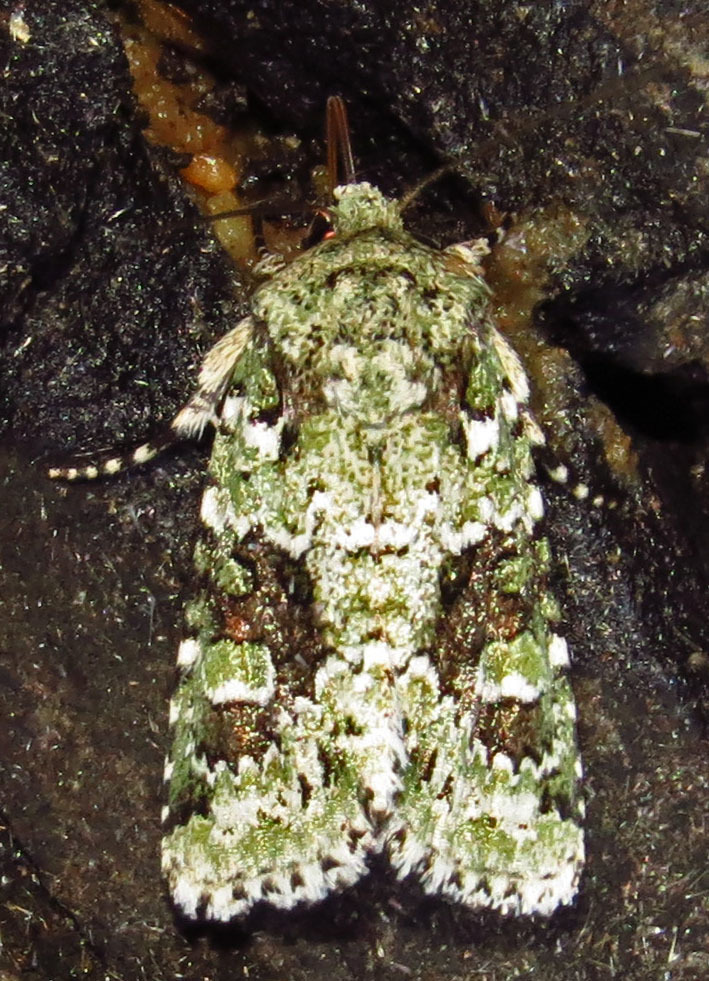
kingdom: Animalia
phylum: Arthropoda
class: Insecta
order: Lepidoptera
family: Noctuidae
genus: Lacinipolia
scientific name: Lacinipolia laudabilis
